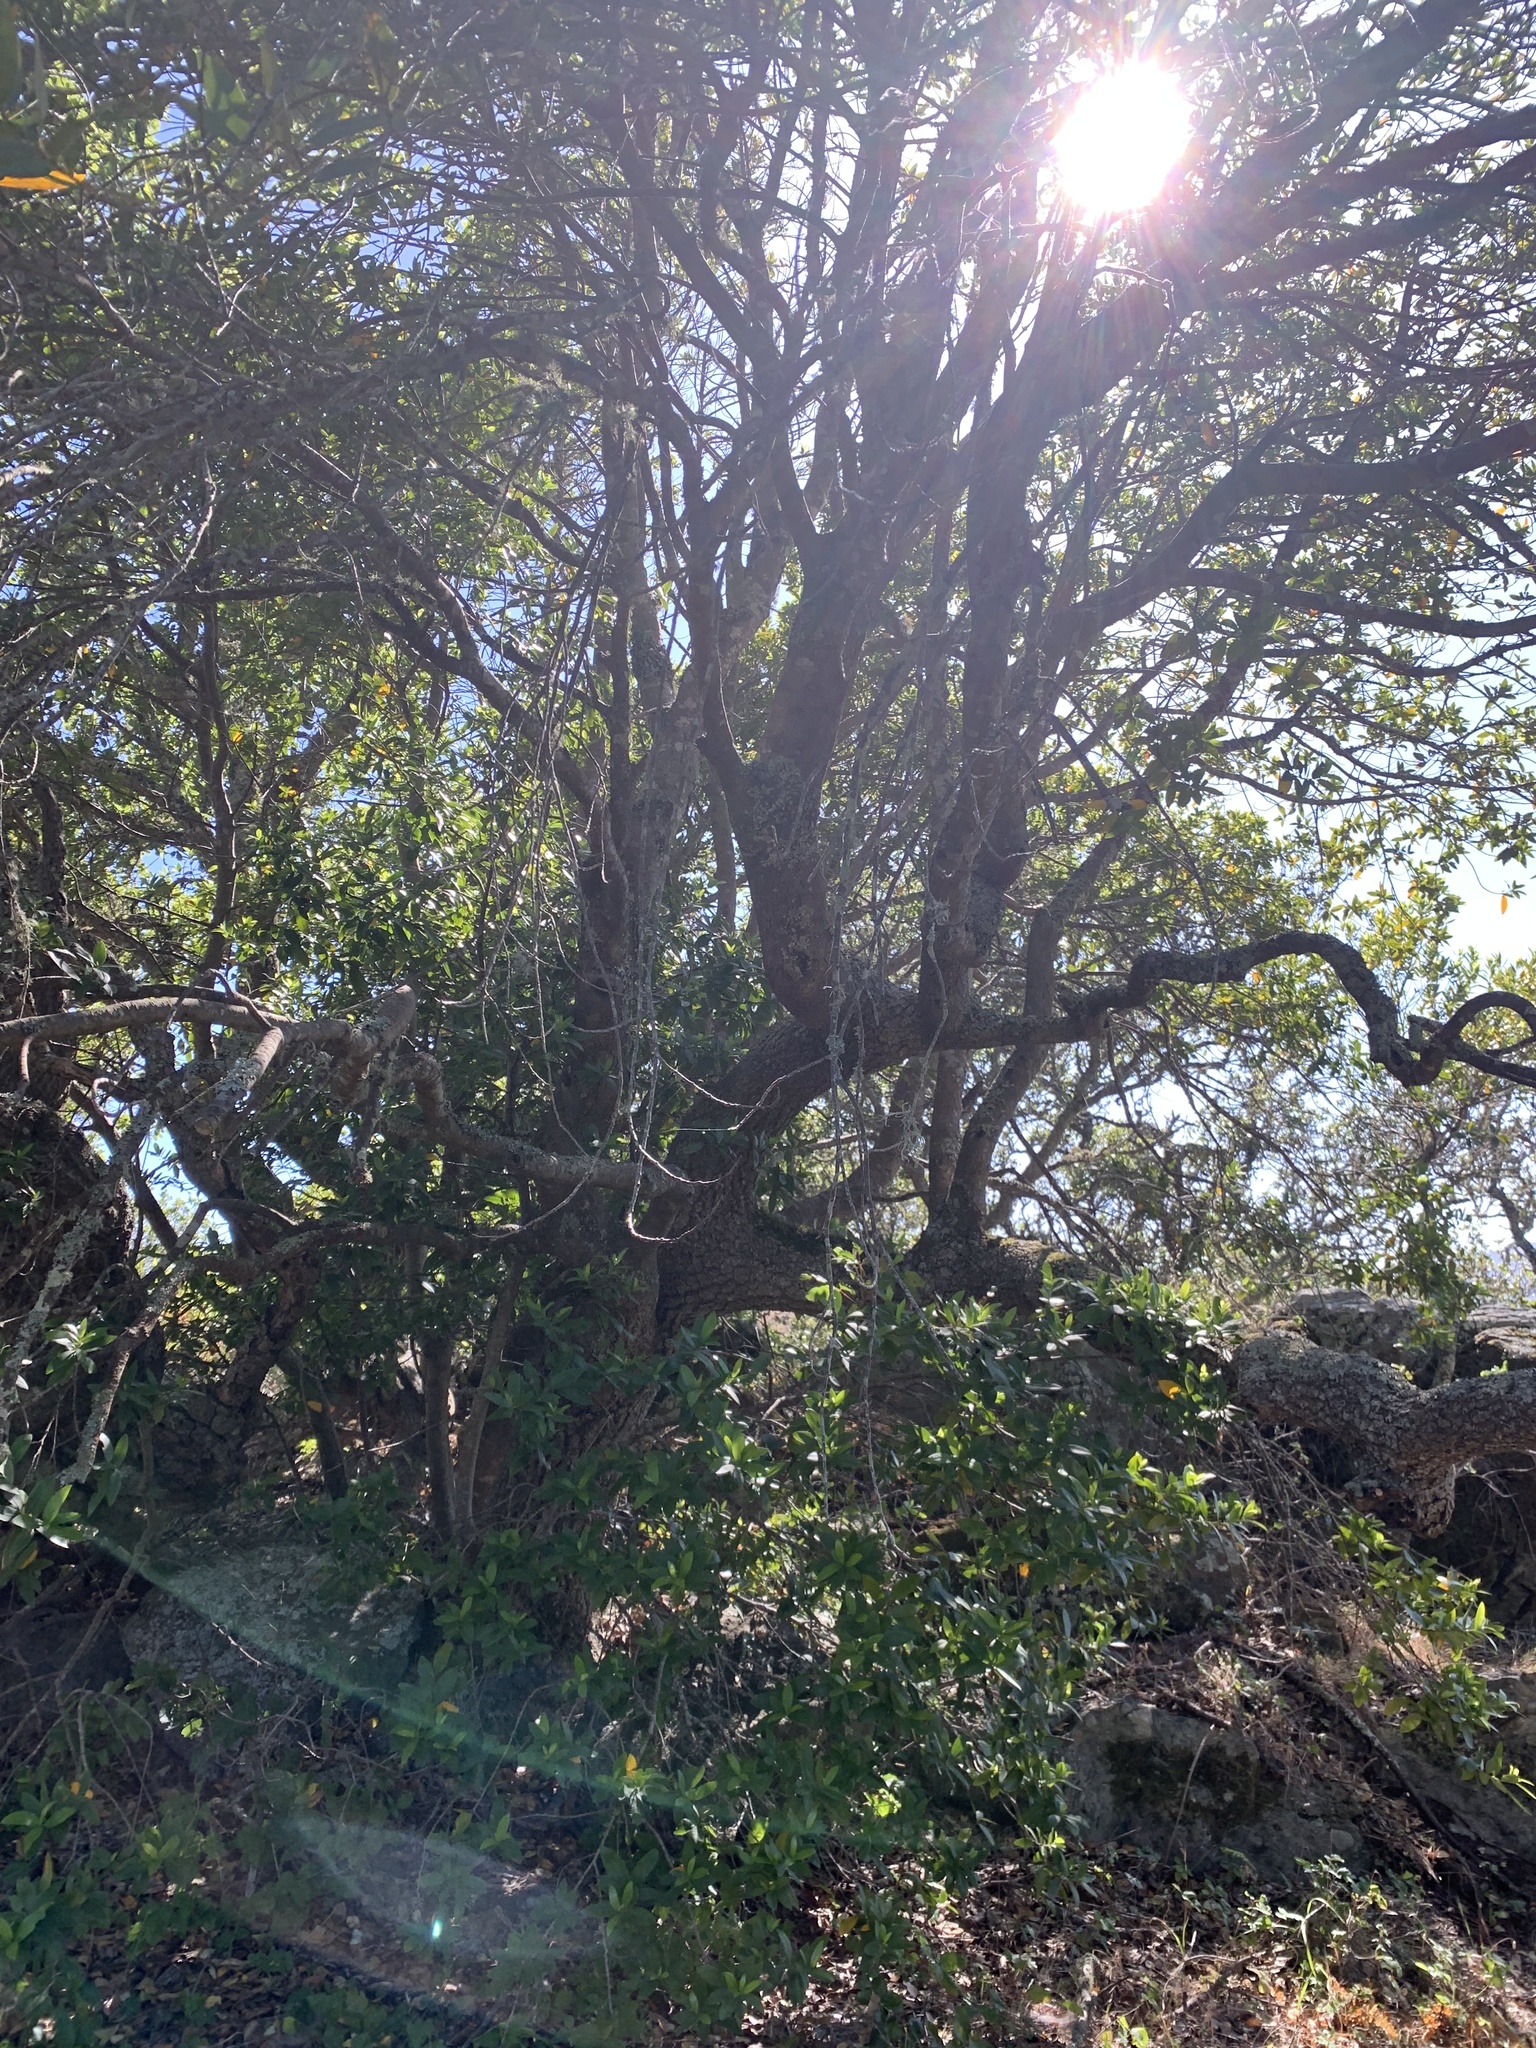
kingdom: Plantae
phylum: Tracheophyta
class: Magnoliopsida
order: Fagales
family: Fagaceae
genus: Quercus
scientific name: Quercus agrifolia
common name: California live oak
